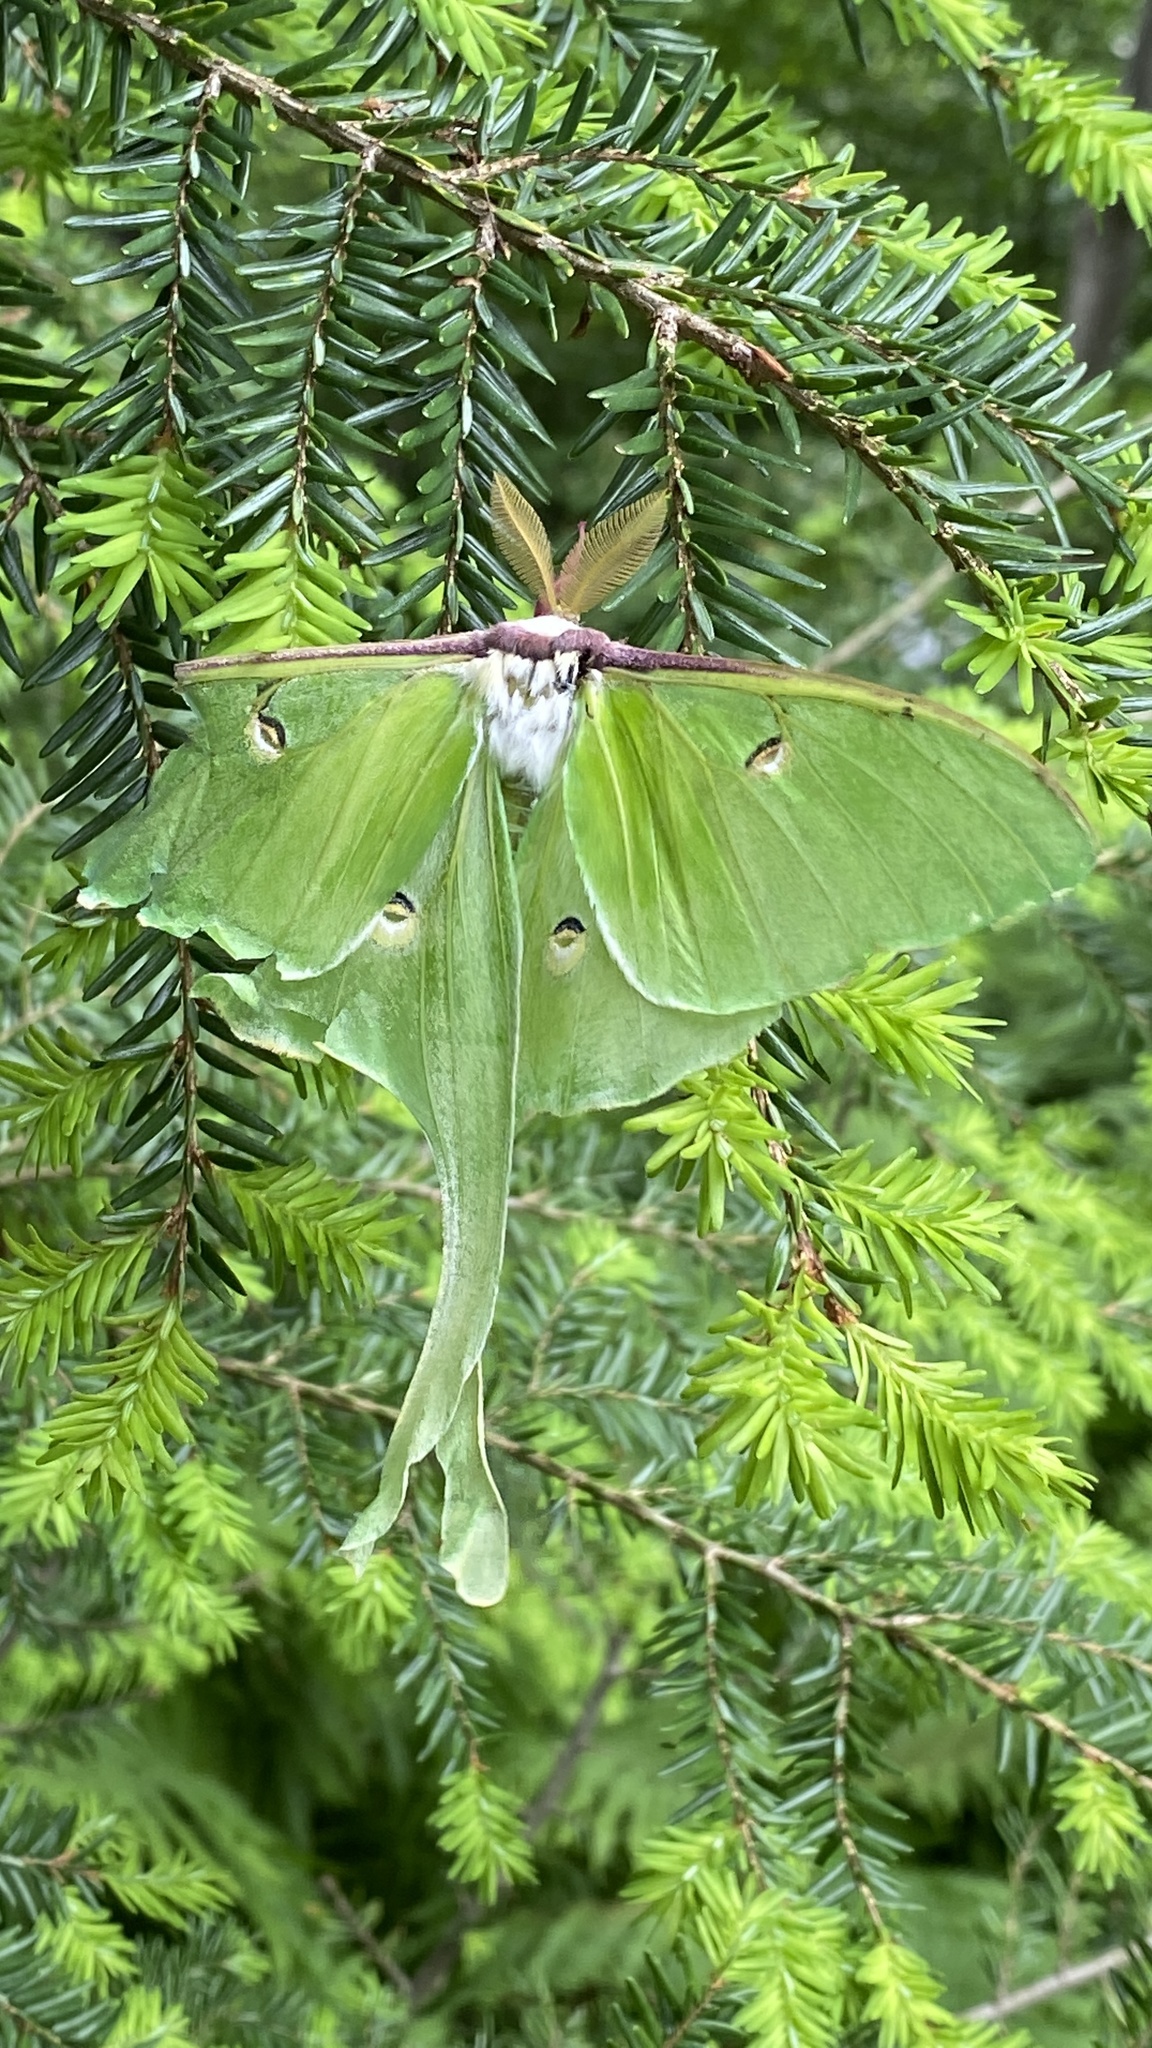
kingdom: Animalia
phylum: Arthropoda
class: Insecta
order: Lepidoptera
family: Saturniidae
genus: Actias
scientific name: Actias luna
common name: Luna moth
